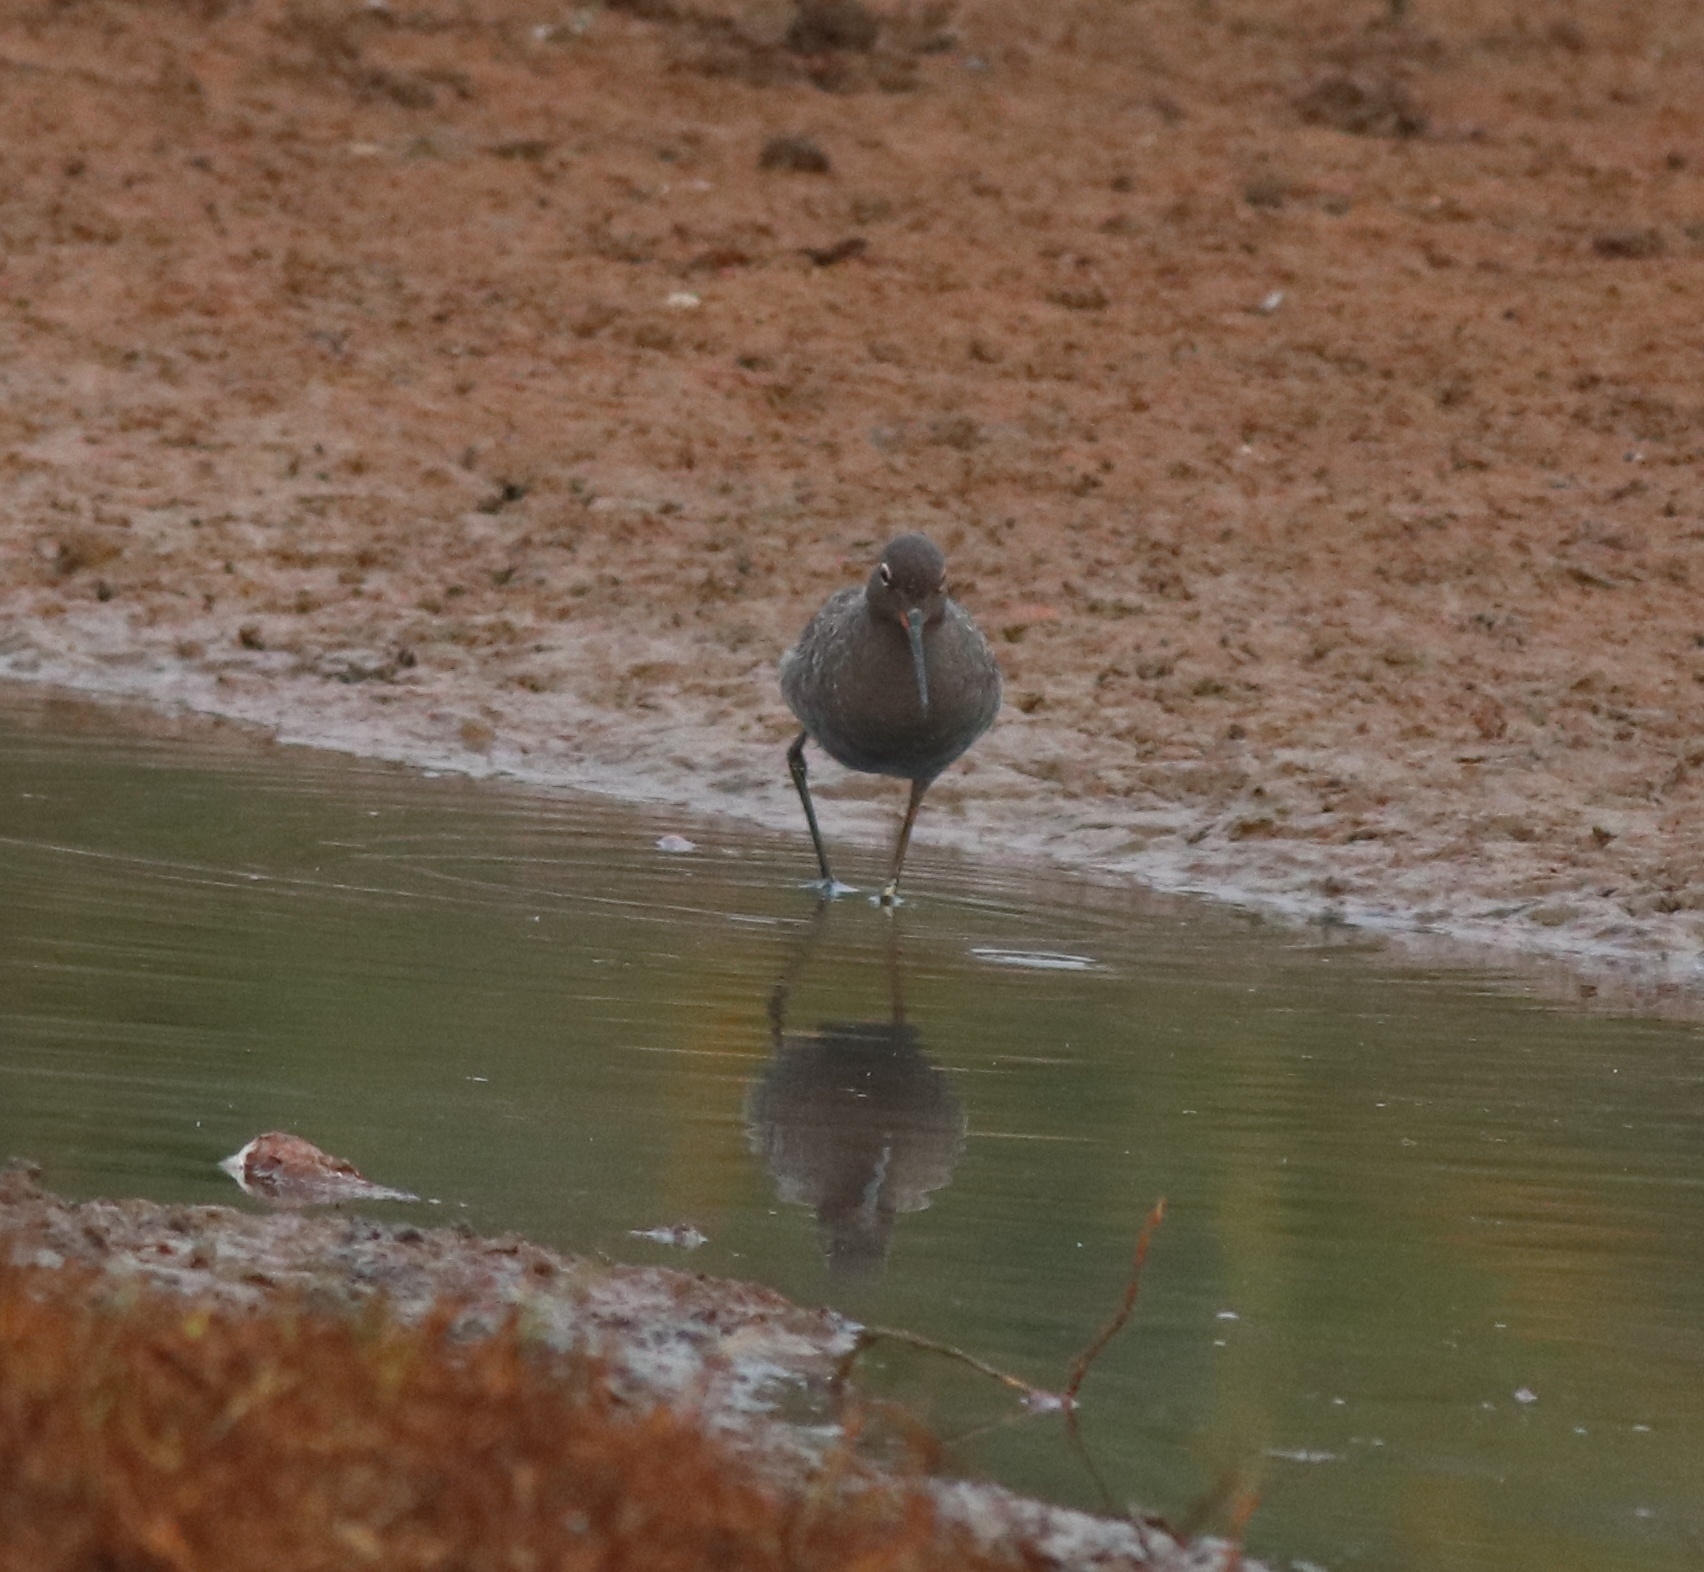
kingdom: Animalia
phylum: Chordata
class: Aves
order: Charadriiformes
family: Scolopacidae
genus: Tringa
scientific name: Tringa erythropus
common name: Spotted redshank
